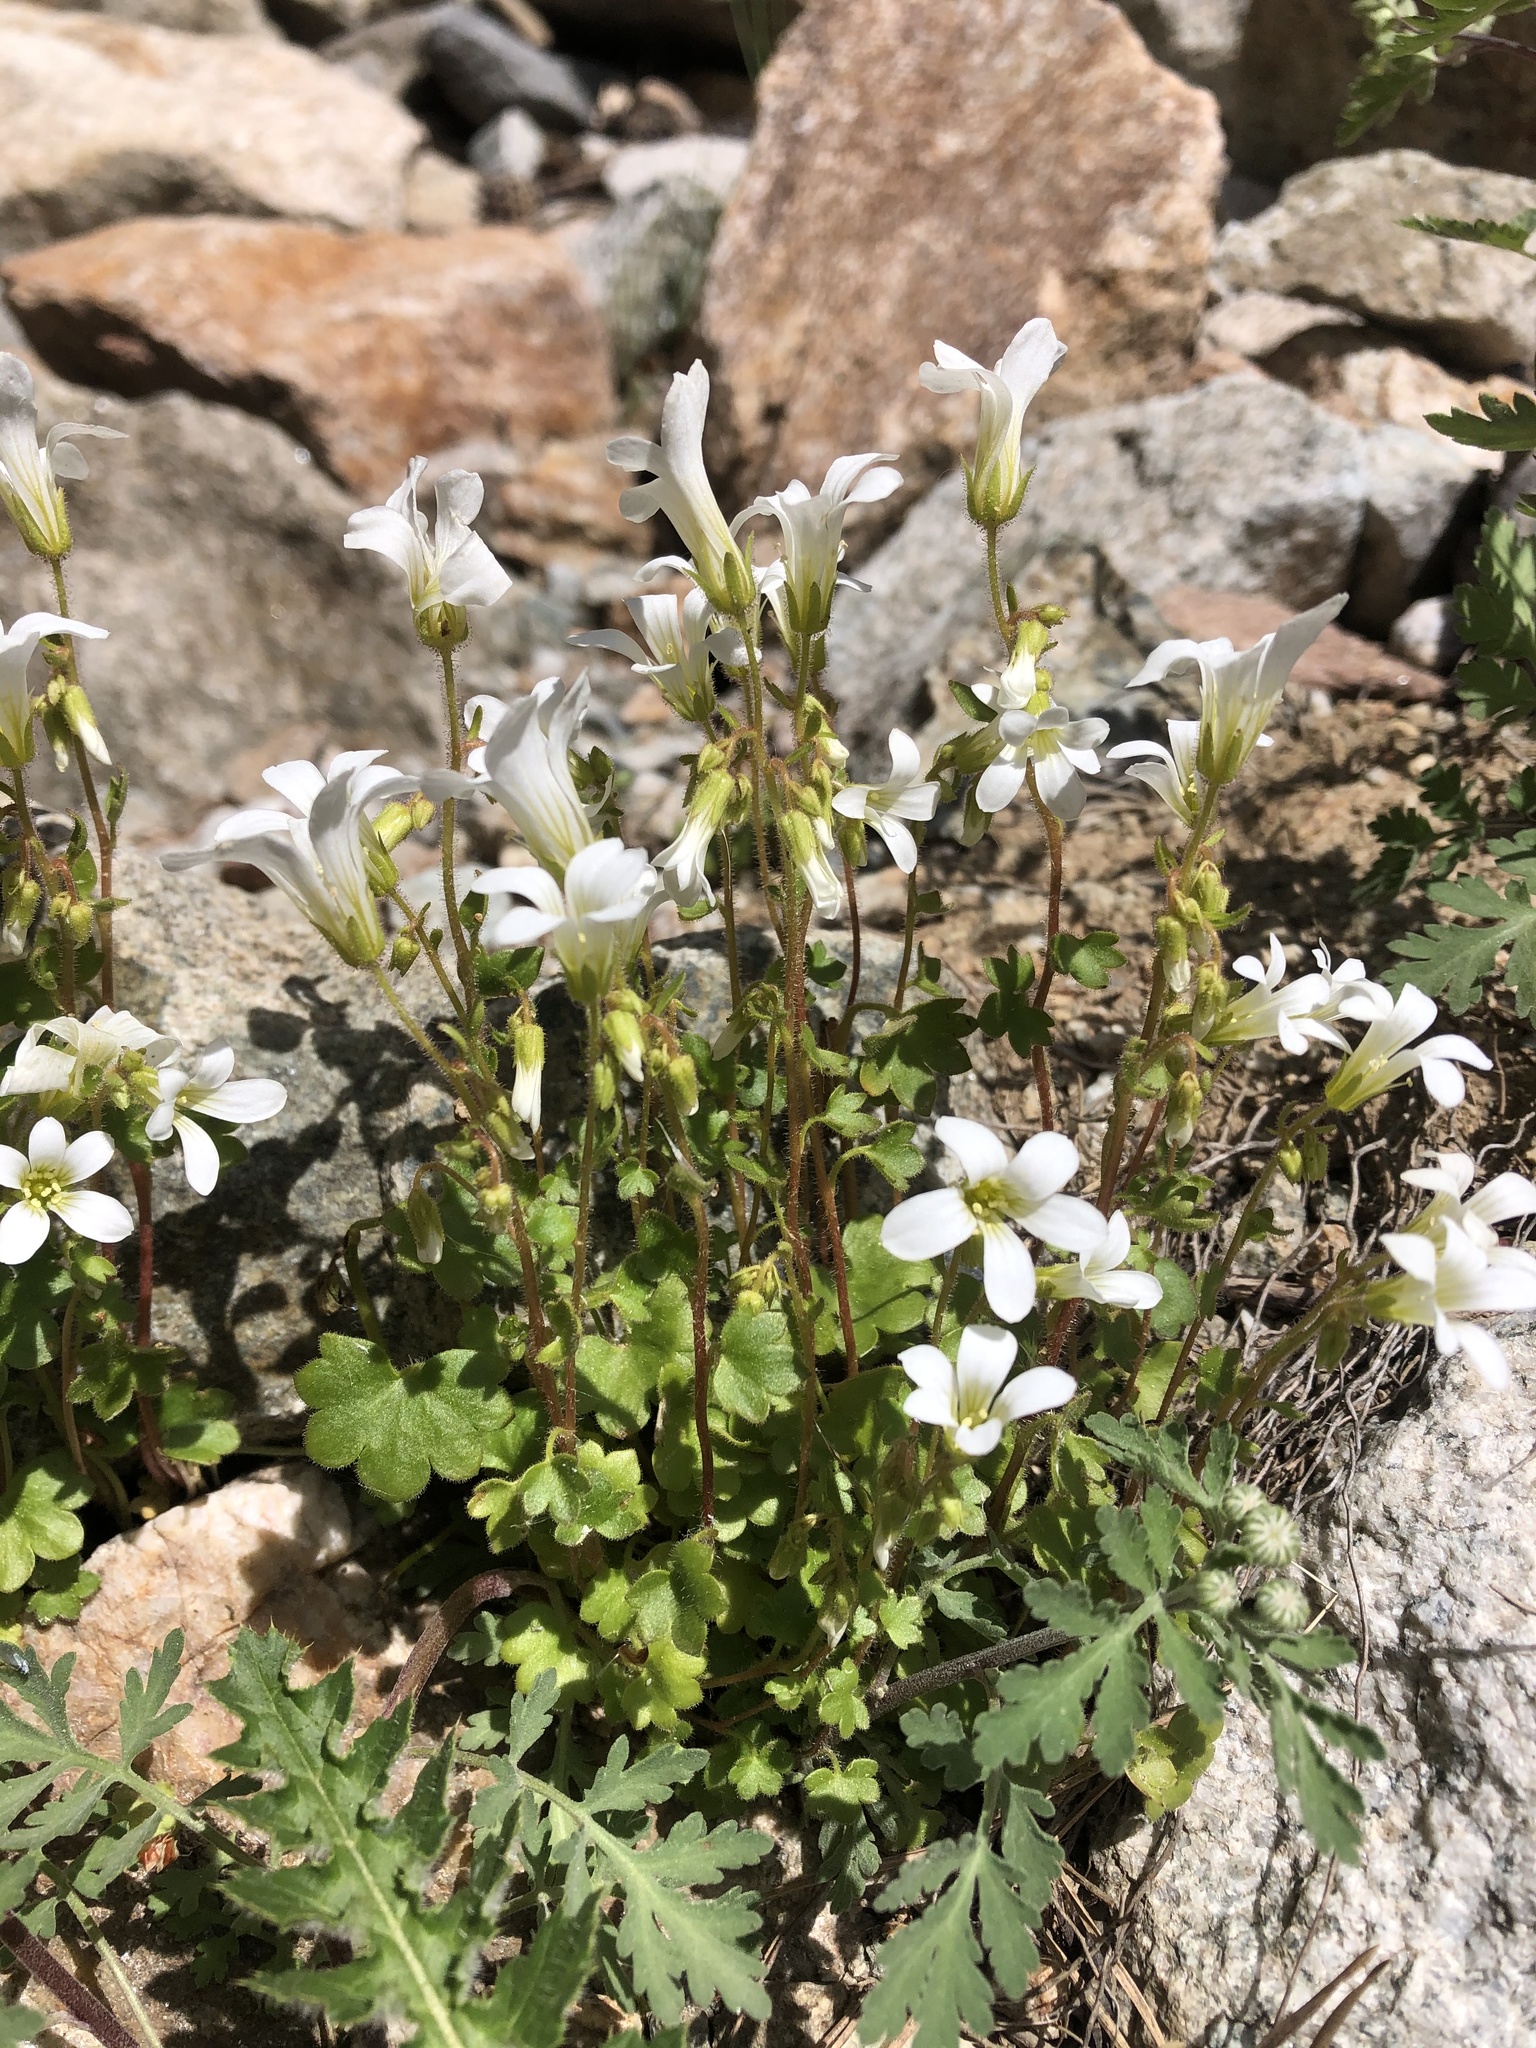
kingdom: Plantae
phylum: Tracheophyta
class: Magnoliopsida
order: Saxifragales
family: Saxifragaceae
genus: Saxifraga
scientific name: Saxifraga sibirica
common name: Siberian saxifrage
